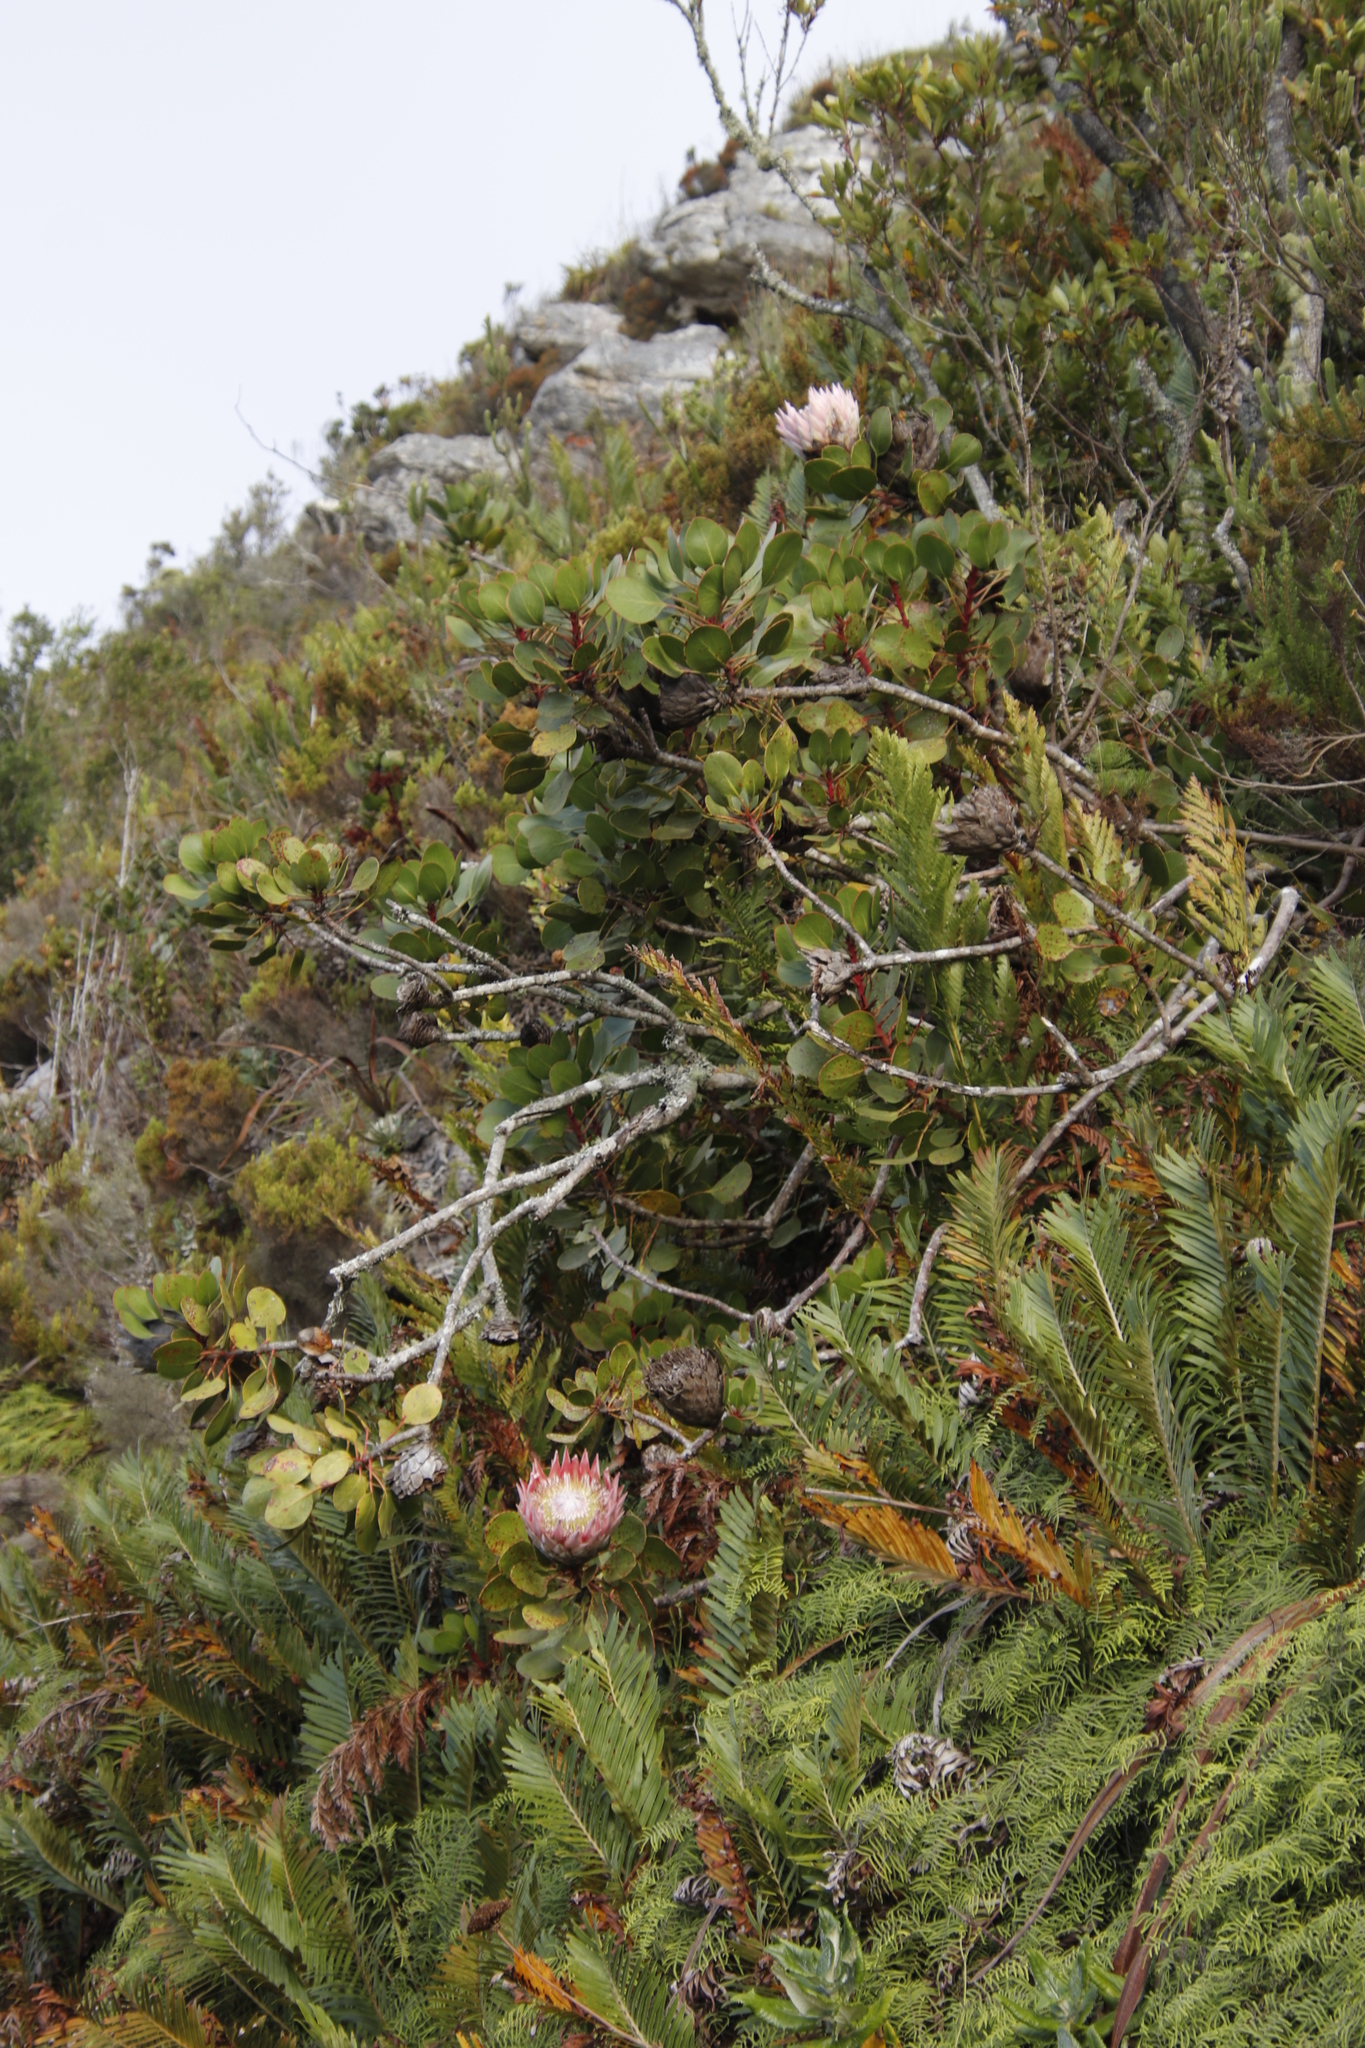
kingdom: Plantae
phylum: Tracheophyta
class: Magnoliopsida
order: Proteales
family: Proteaceae
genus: Protea
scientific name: Protea cynaroides
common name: King protea
